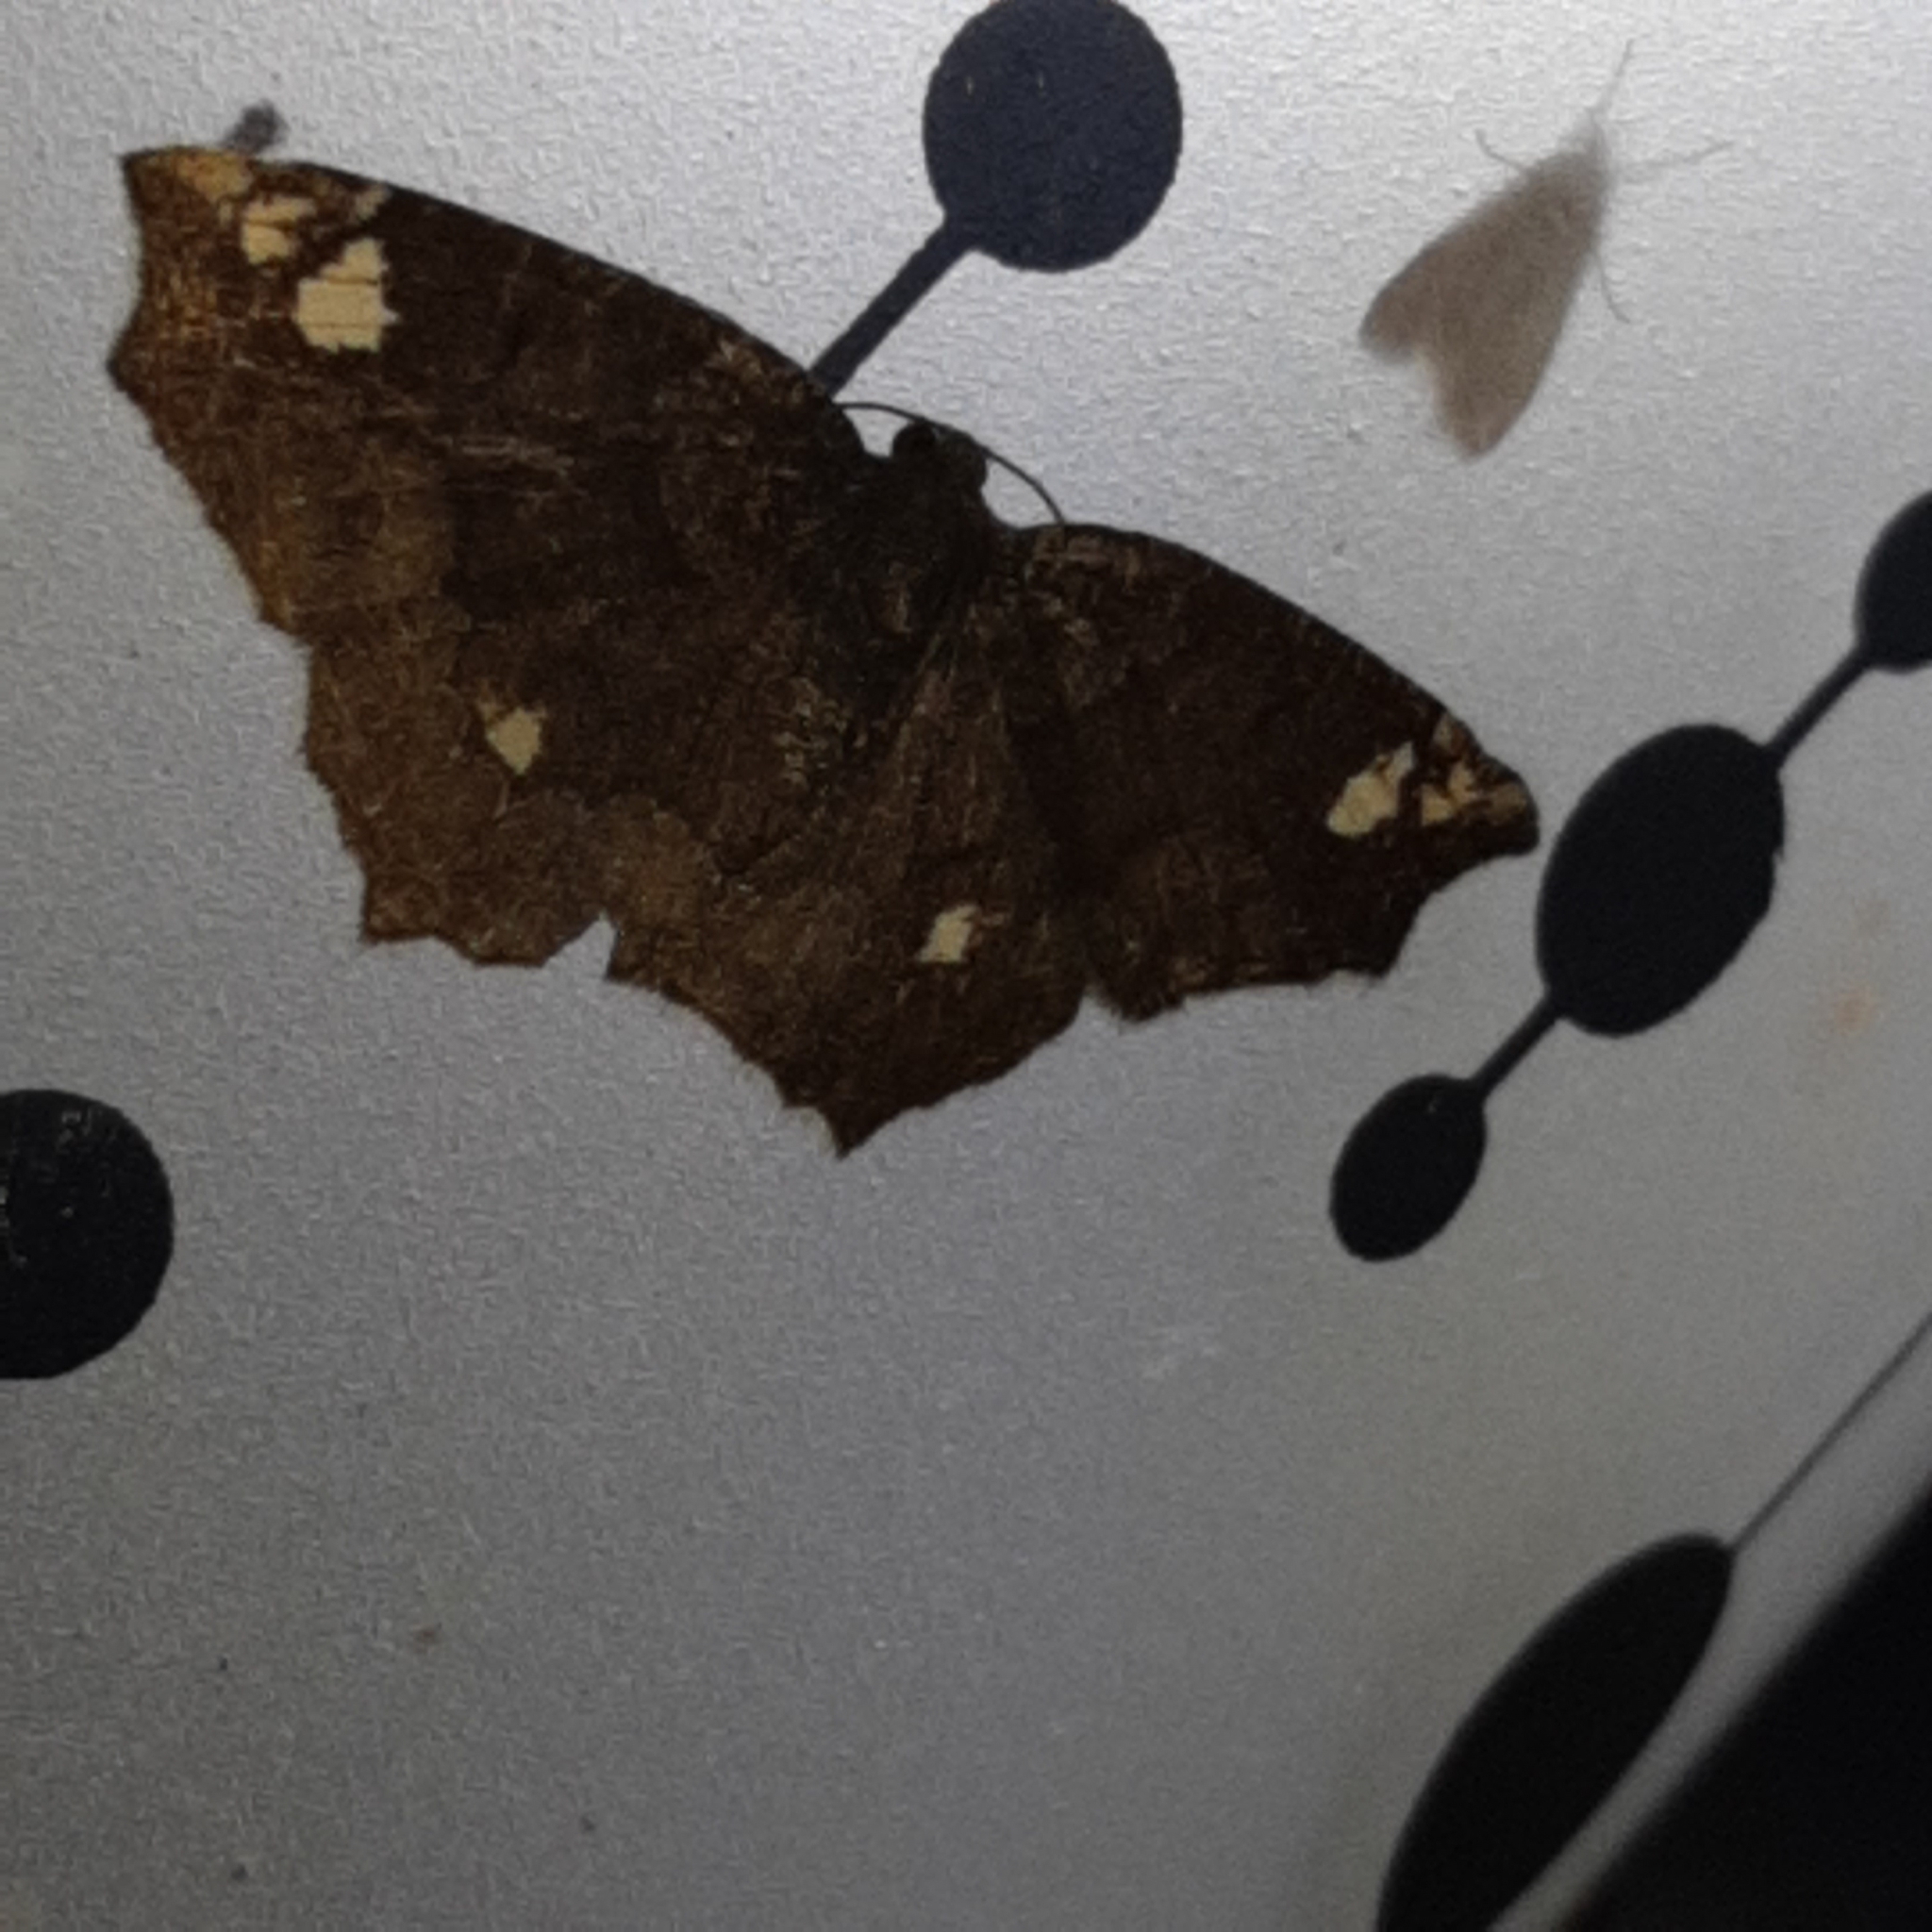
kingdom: Animalia
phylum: Arthropoda
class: Insecta
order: Lepidoptera
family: Geometridae
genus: Anisoperas
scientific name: Anisoperas tessellata
